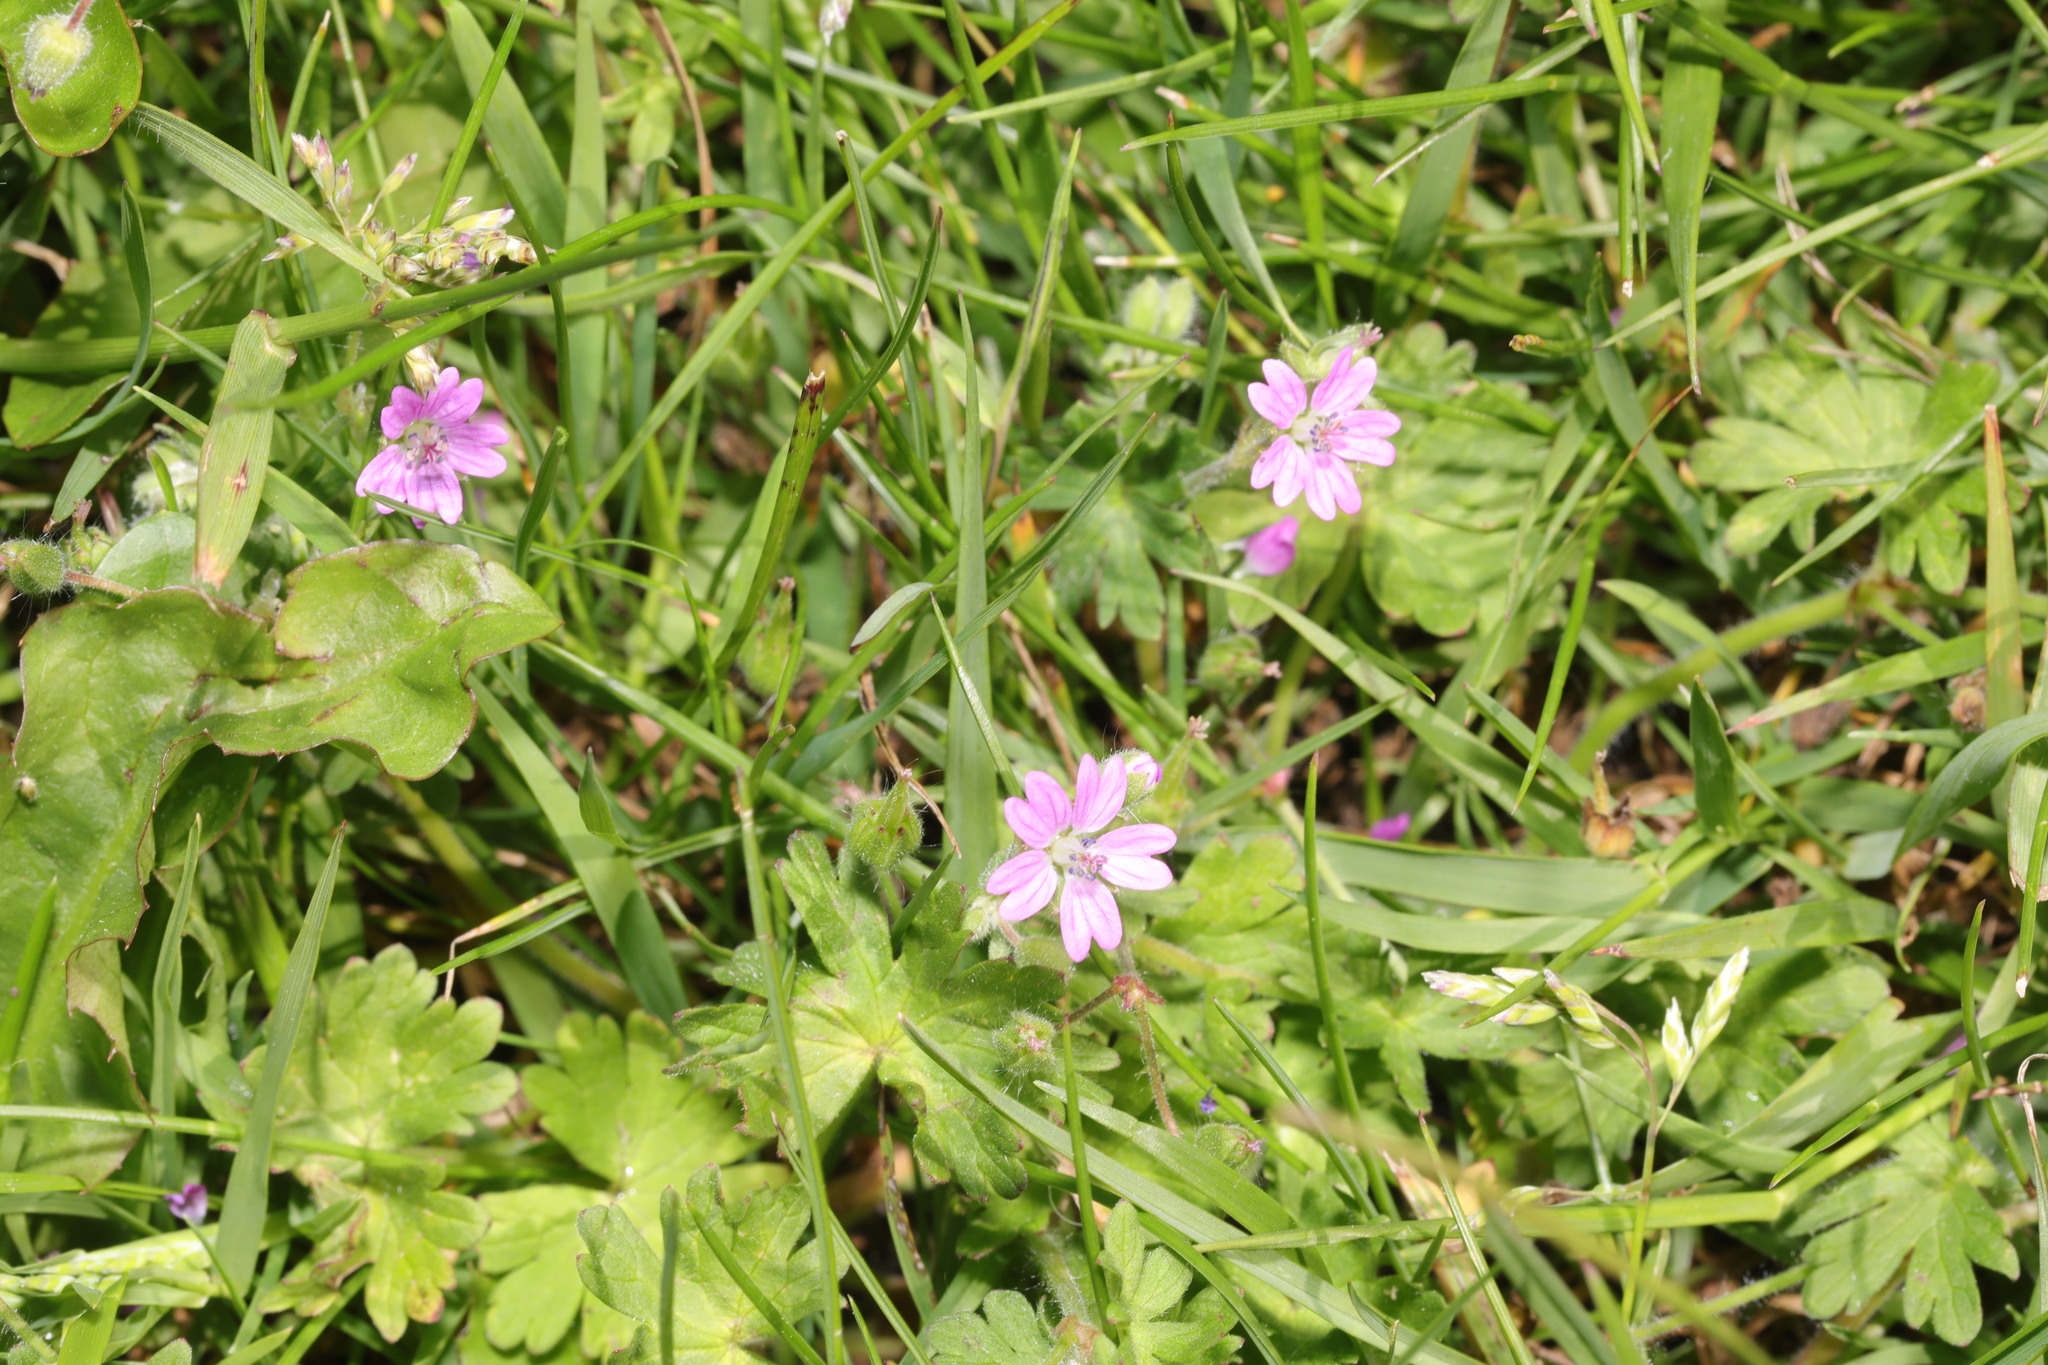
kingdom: Plantae
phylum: Tracheophyta
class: Magnoliopsida
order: Geraniales
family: Geraniaceae
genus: Geranium
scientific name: Geranium molle
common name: Dove's-foot crane's-bill
